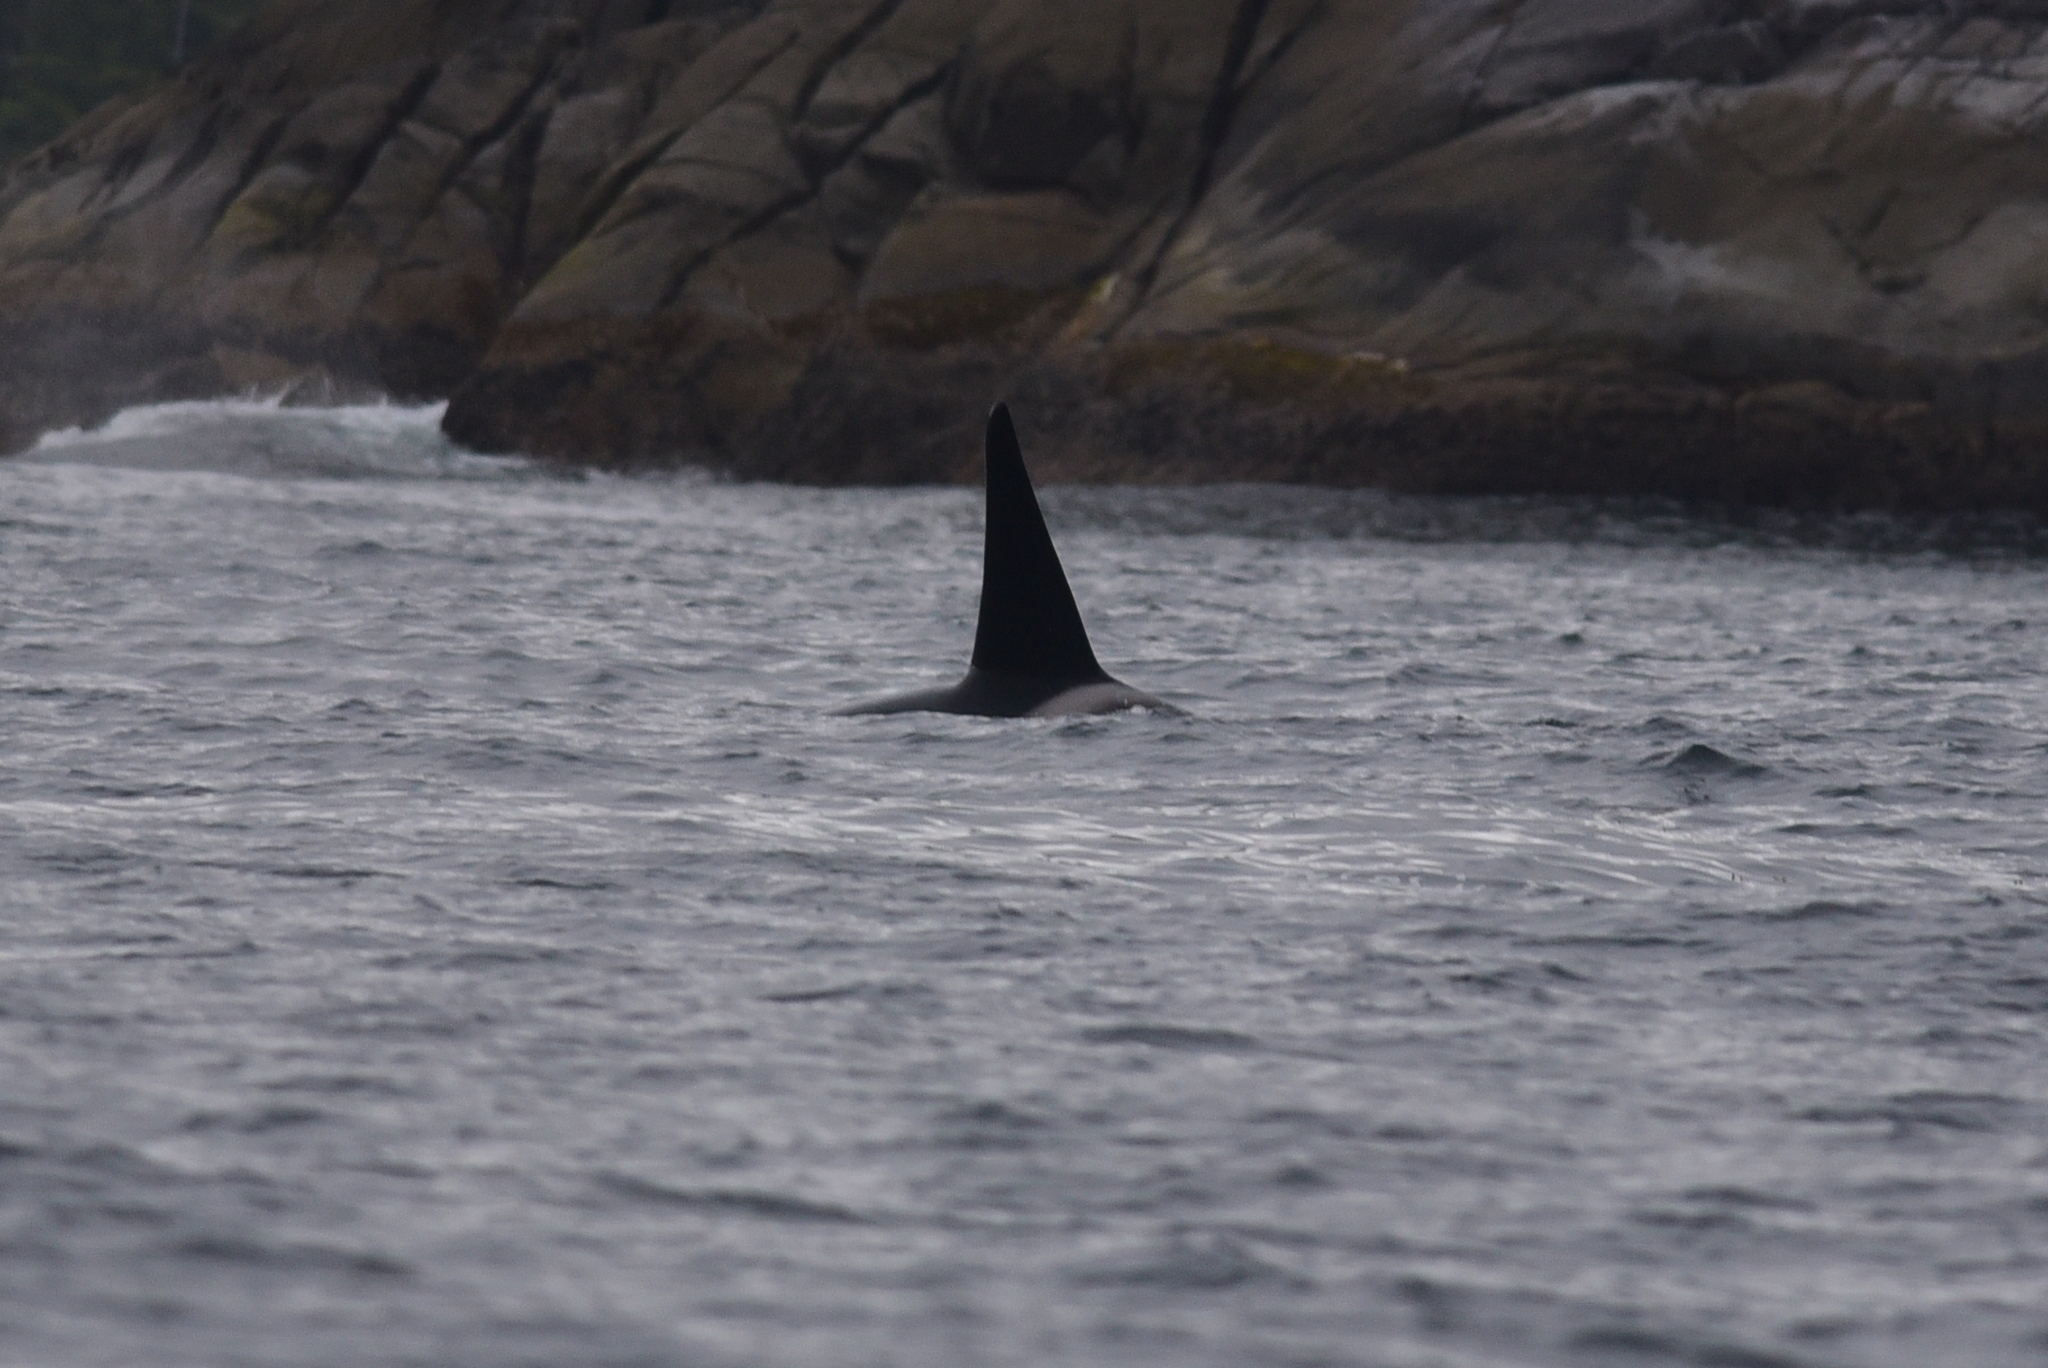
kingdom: Animalia
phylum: Chordata
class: Mammalia
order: Cetacea
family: Delphinidae
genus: Orcinus
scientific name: Orcinus orca
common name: Killer whale
